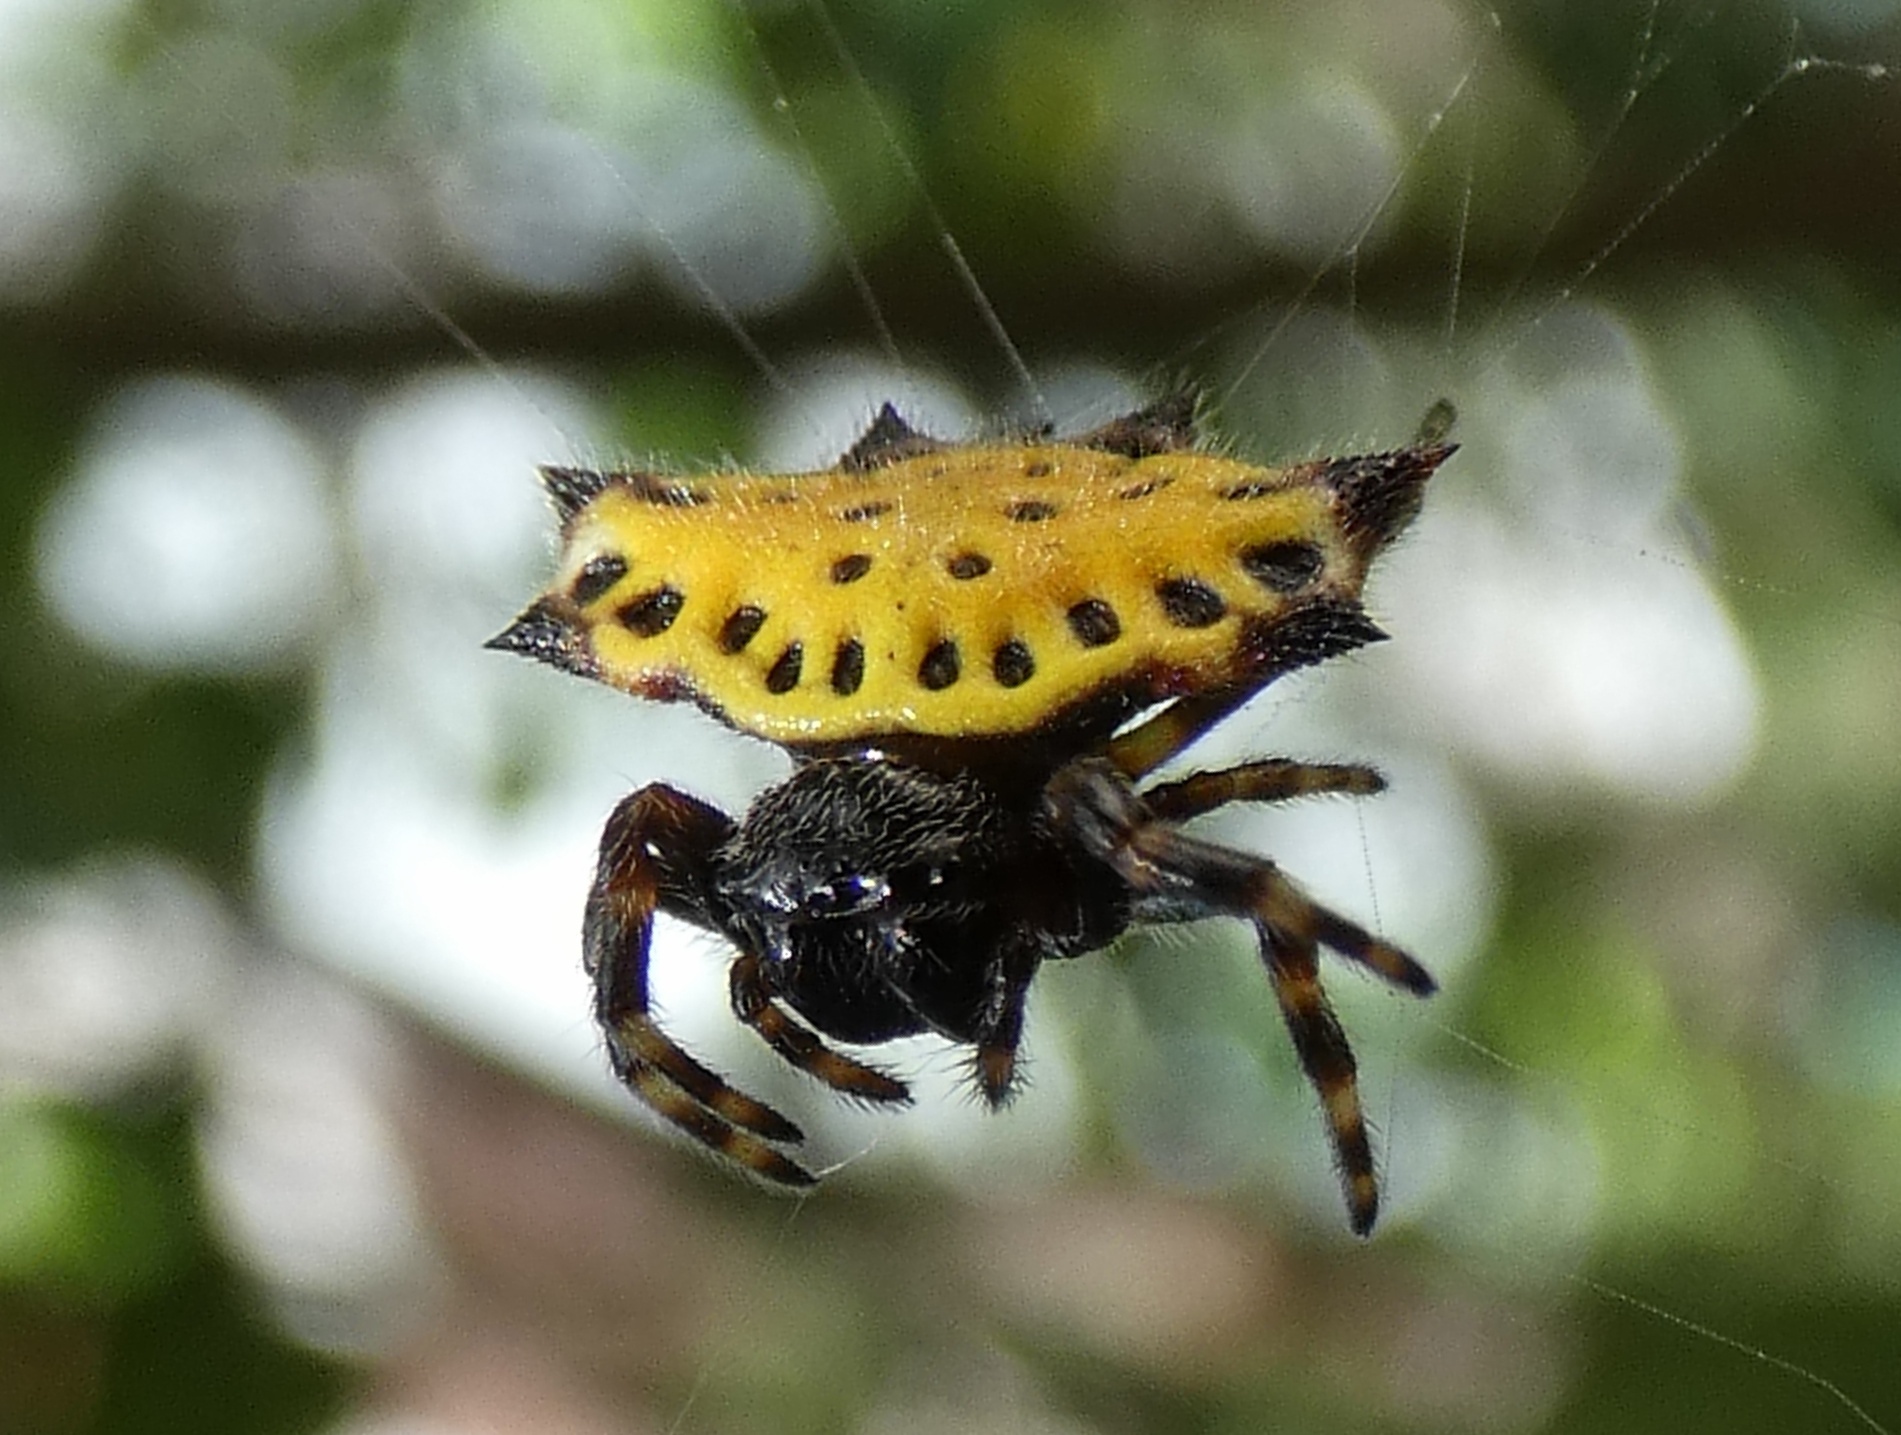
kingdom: Animalia
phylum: Arthropoda
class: Arachnida
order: Araneae
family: Araneidae
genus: Gasteracantha
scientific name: Gasteracantha cancriformis
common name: Orb weavers
